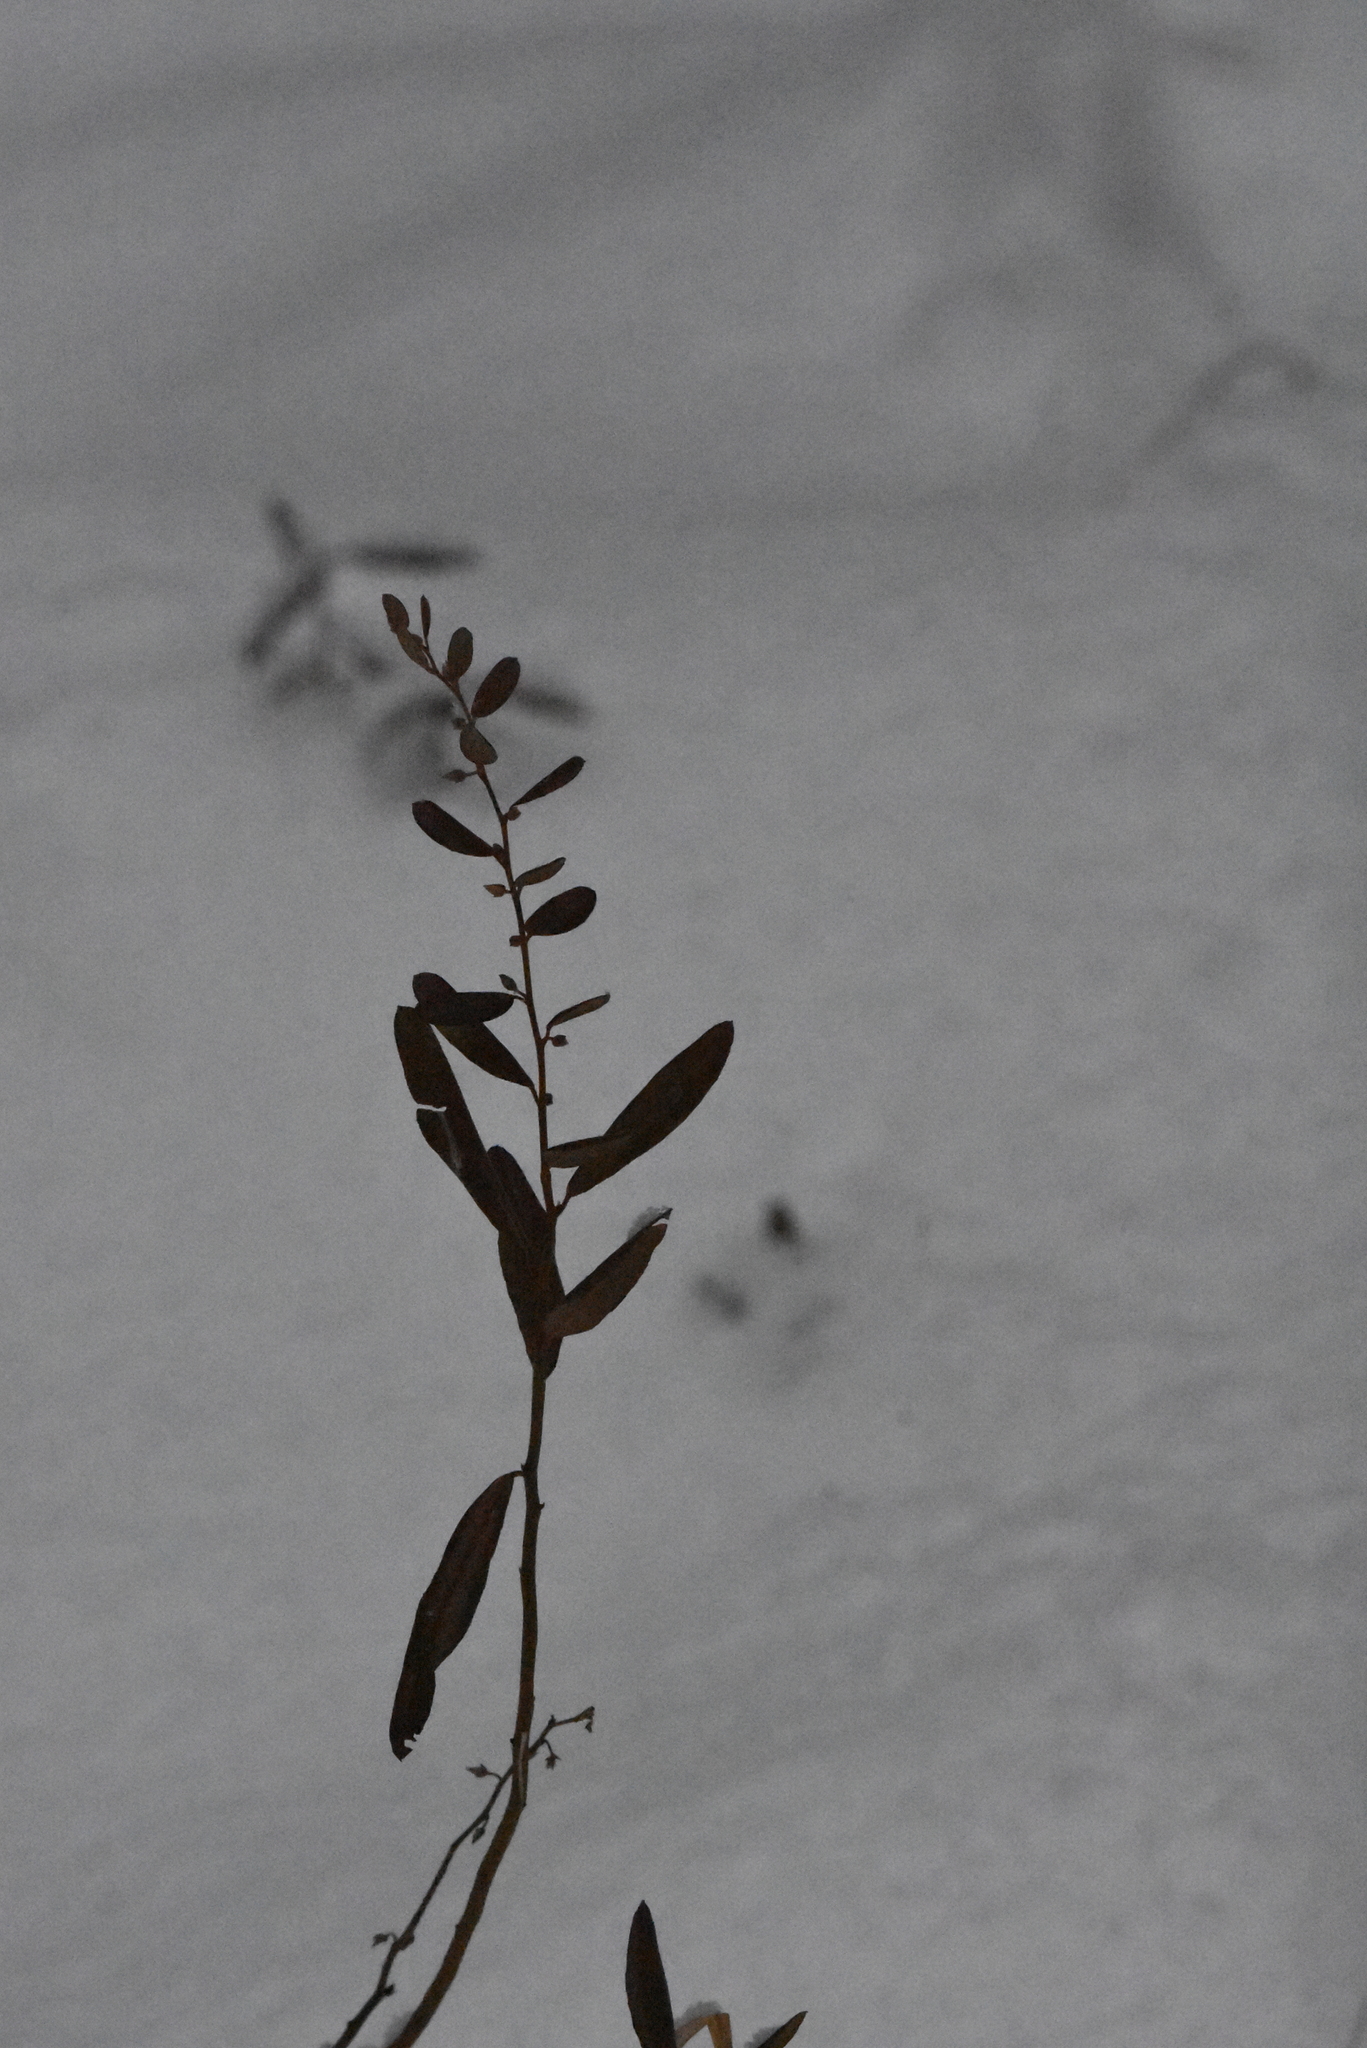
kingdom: Plantae
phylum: Tracheophyta
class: Magnoliopsida
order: Ericales
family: Ericaceae
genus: Chamaedaphne
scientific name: Chamaedaphne calyculata
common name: Leatherleaf
